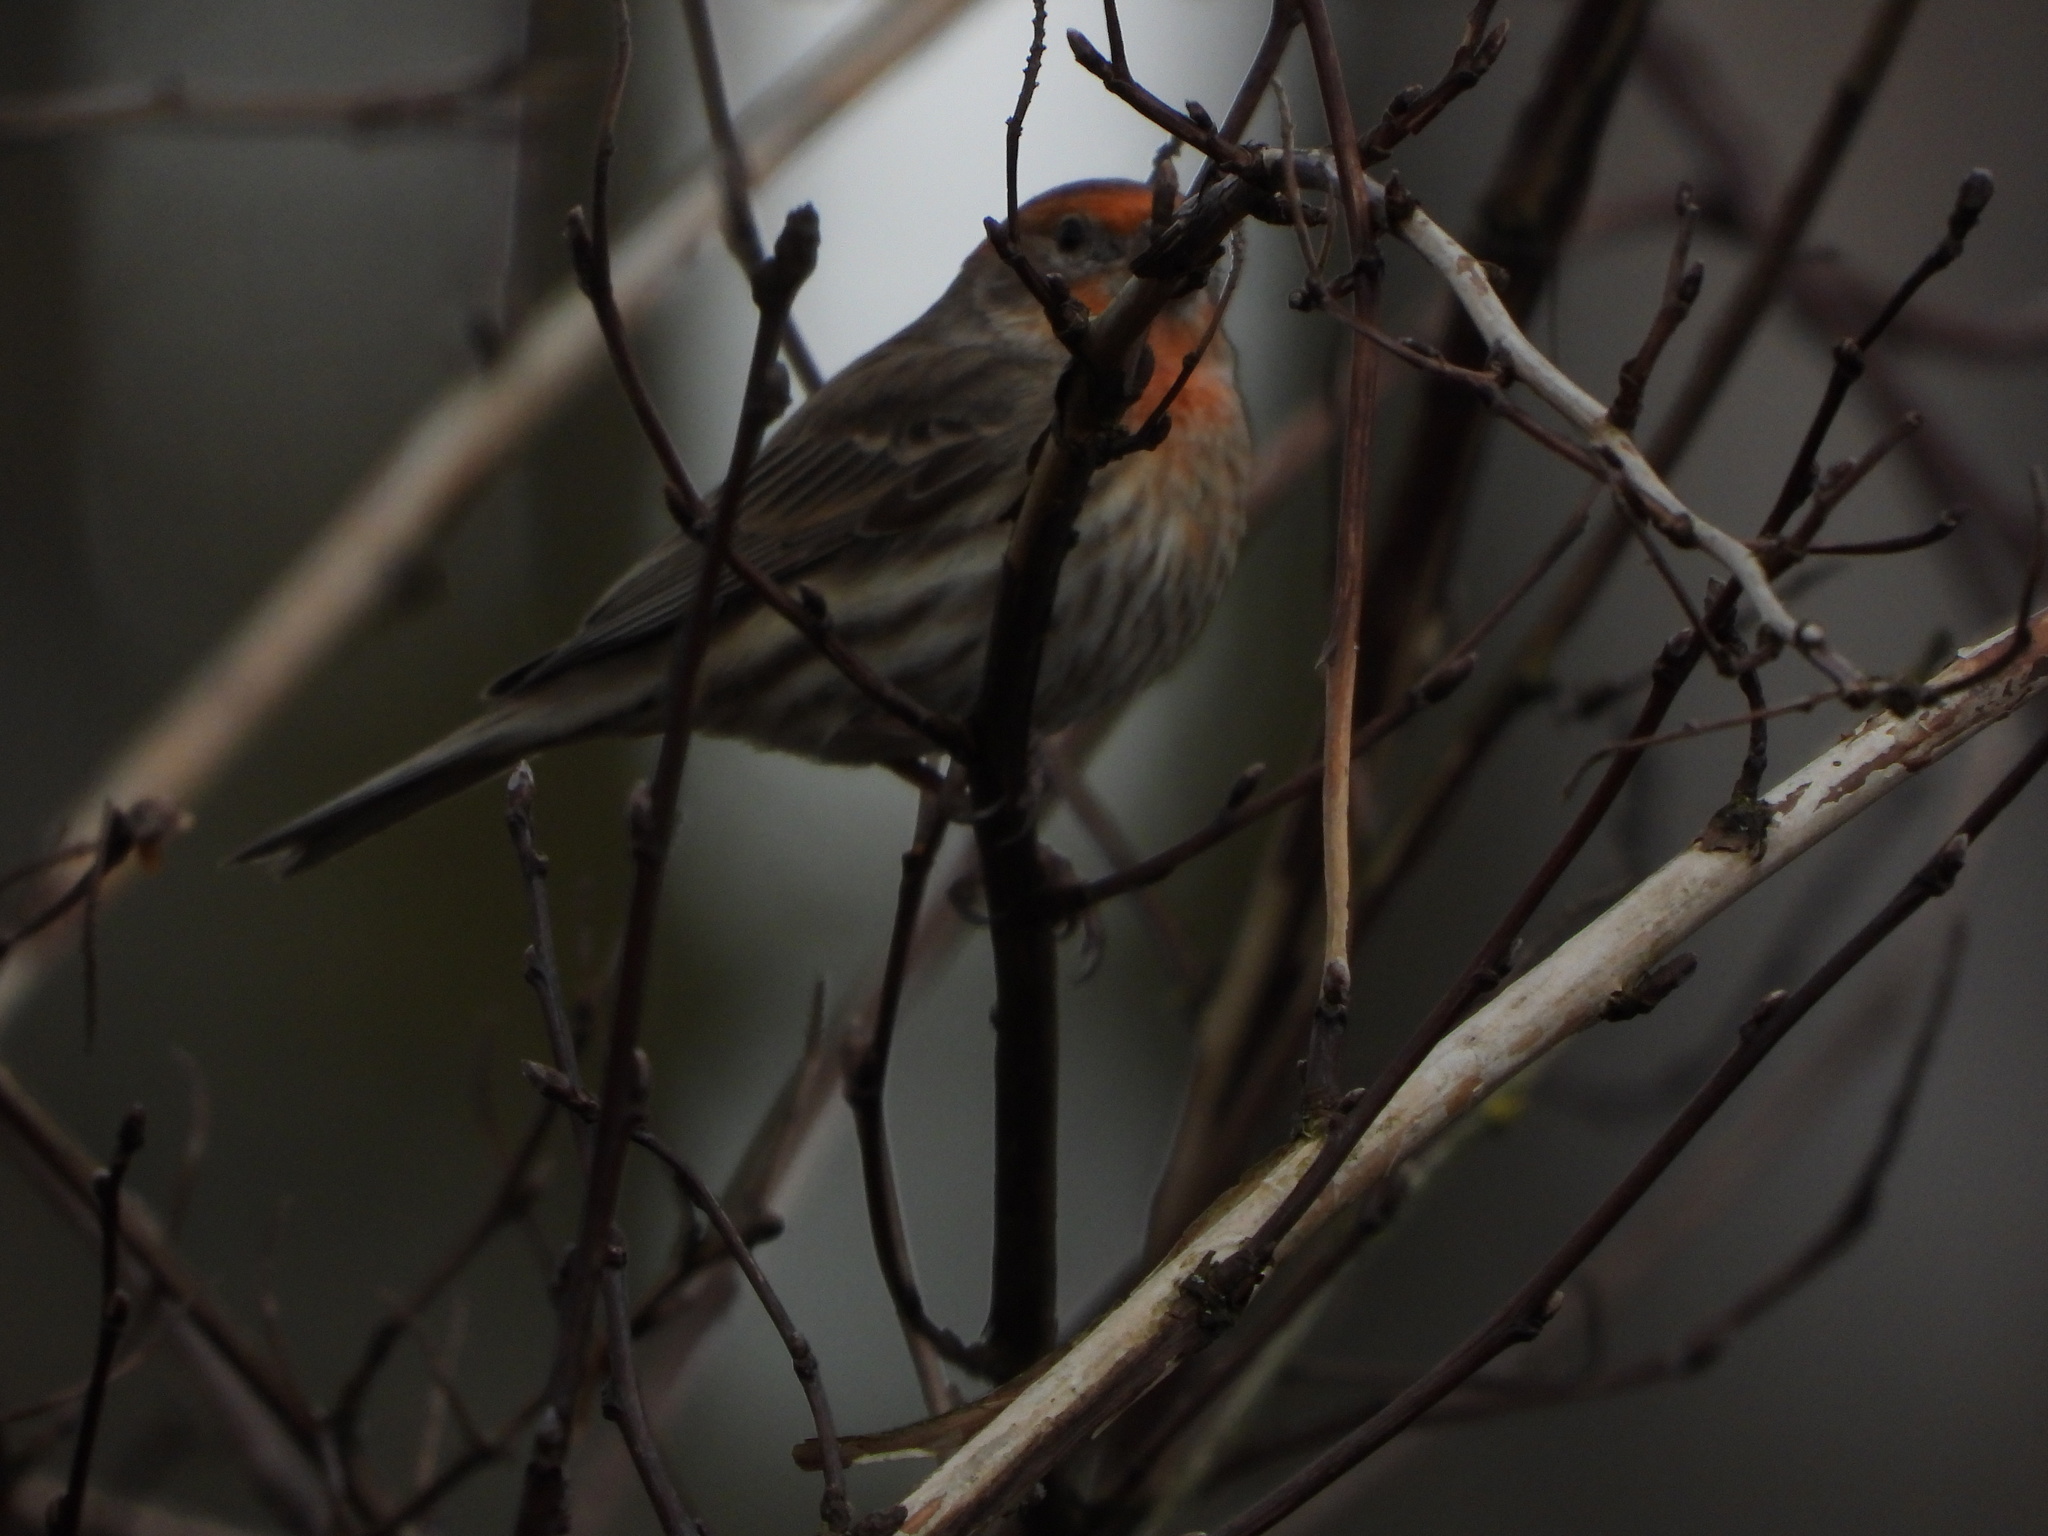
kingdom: Animalia
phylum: Chordata
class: Aves
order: Passeriformes
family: Fringillidae
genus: Haemorhous
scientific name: Haemorhous mexicanus
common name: House finch
